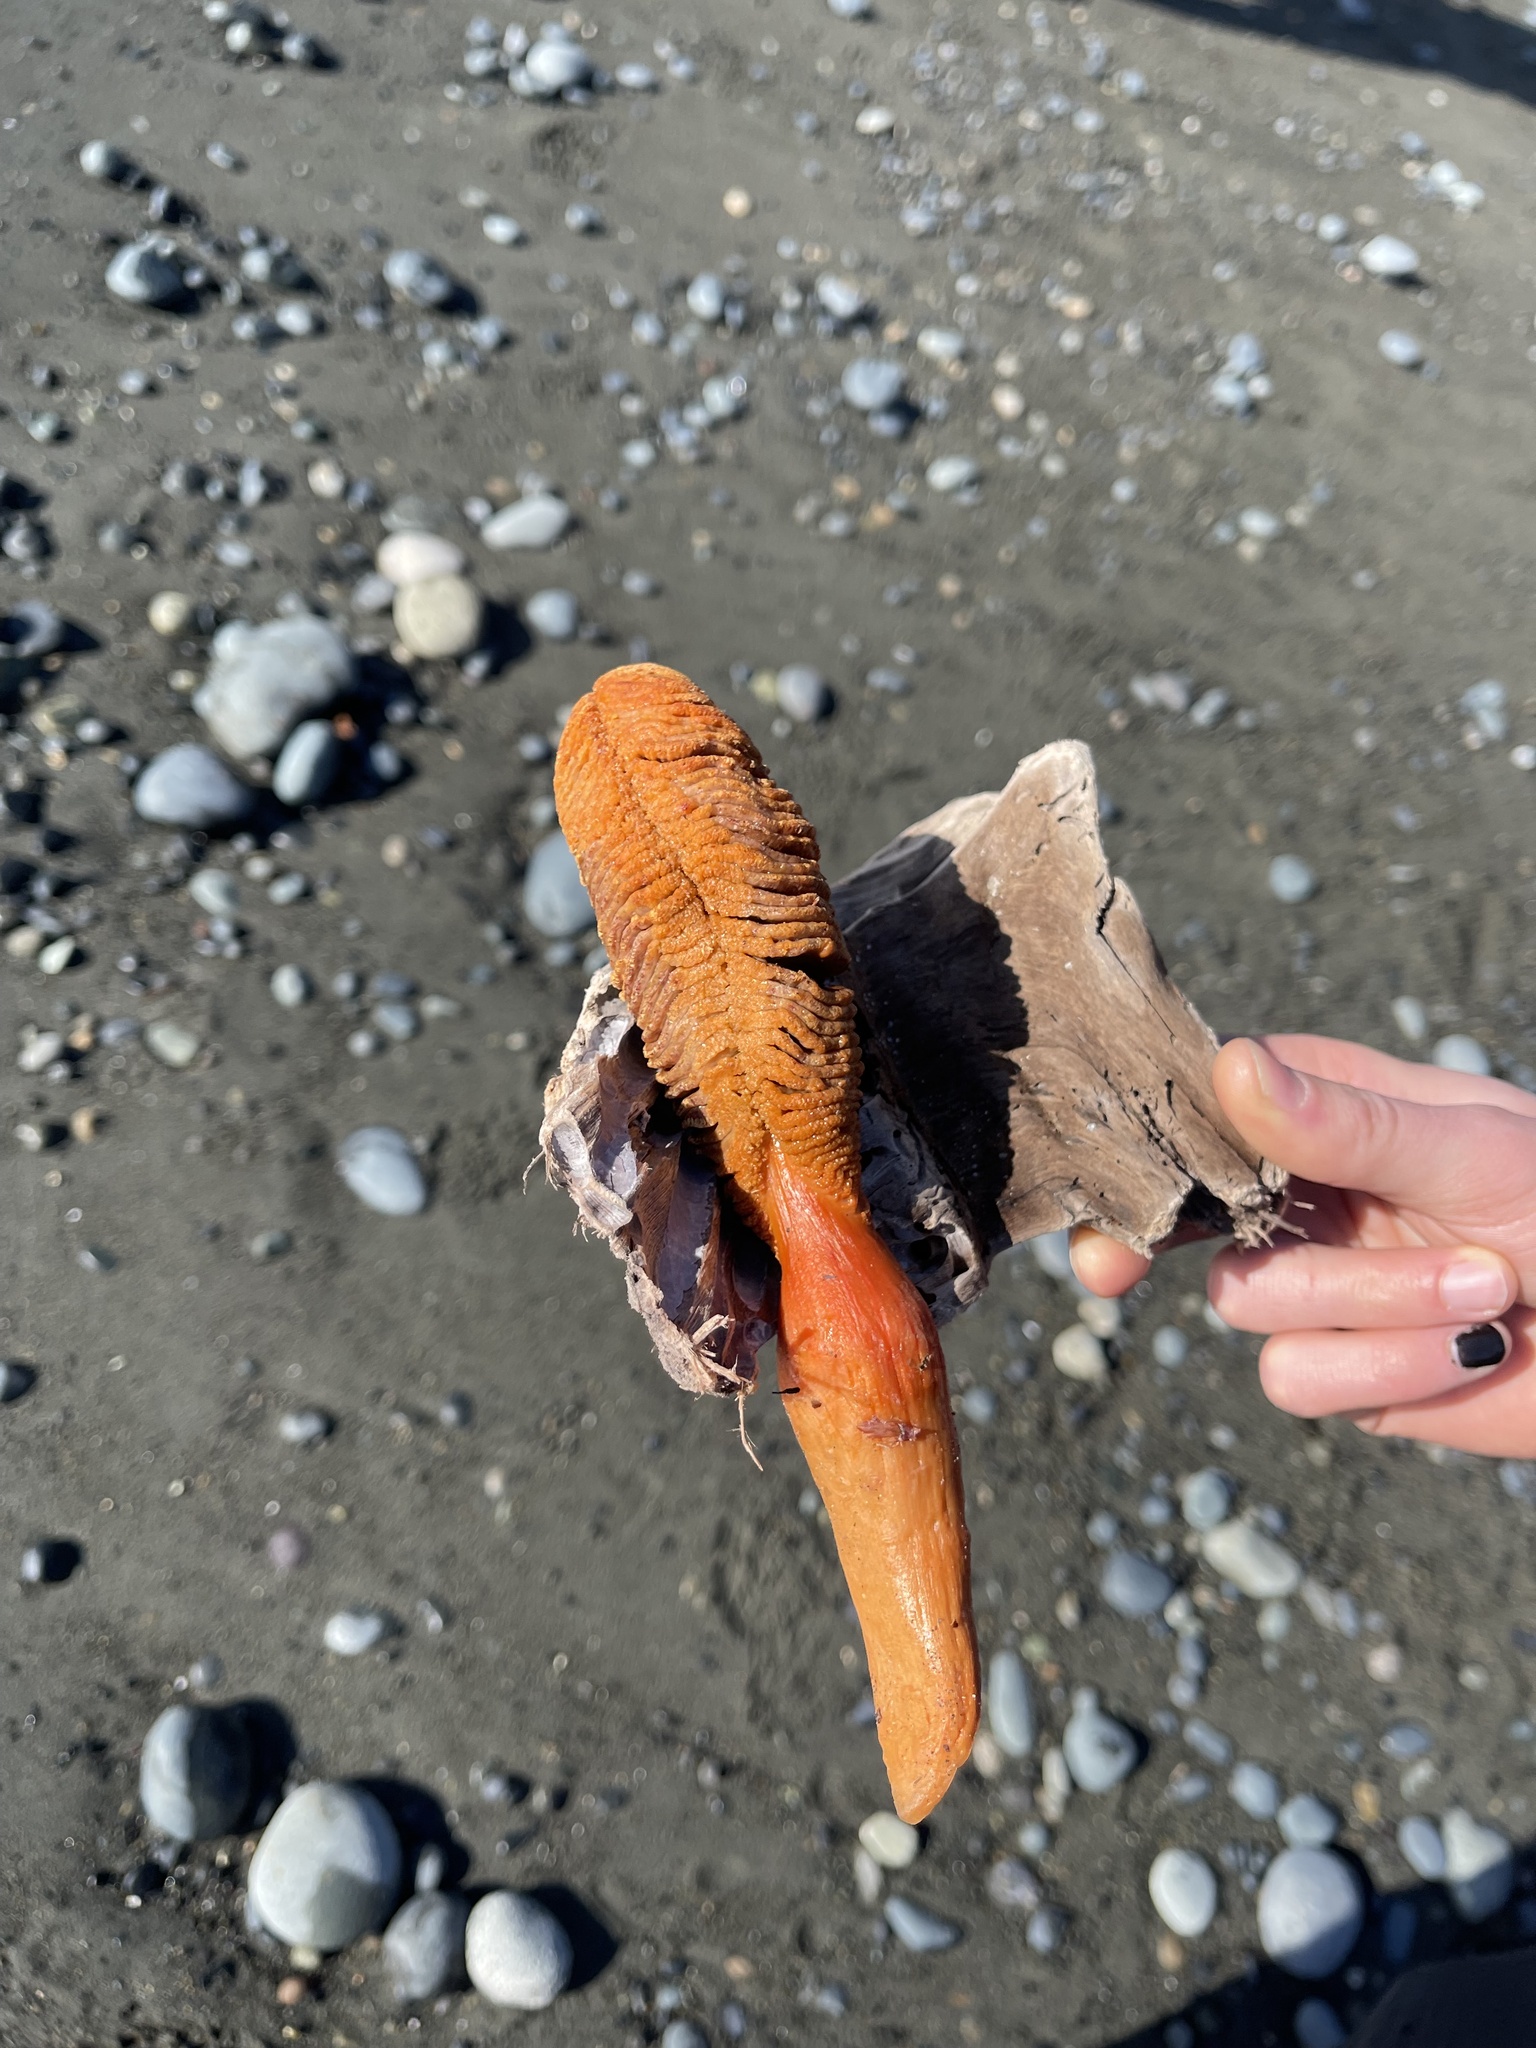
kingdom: Animalia
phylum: Cnidaria
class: Anthozoa
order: Scleralcyonacea
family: Pennatulidae
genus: Ptilosarcus
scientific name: Ptilosarcus gurneyi
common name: Gurney's sea pen
